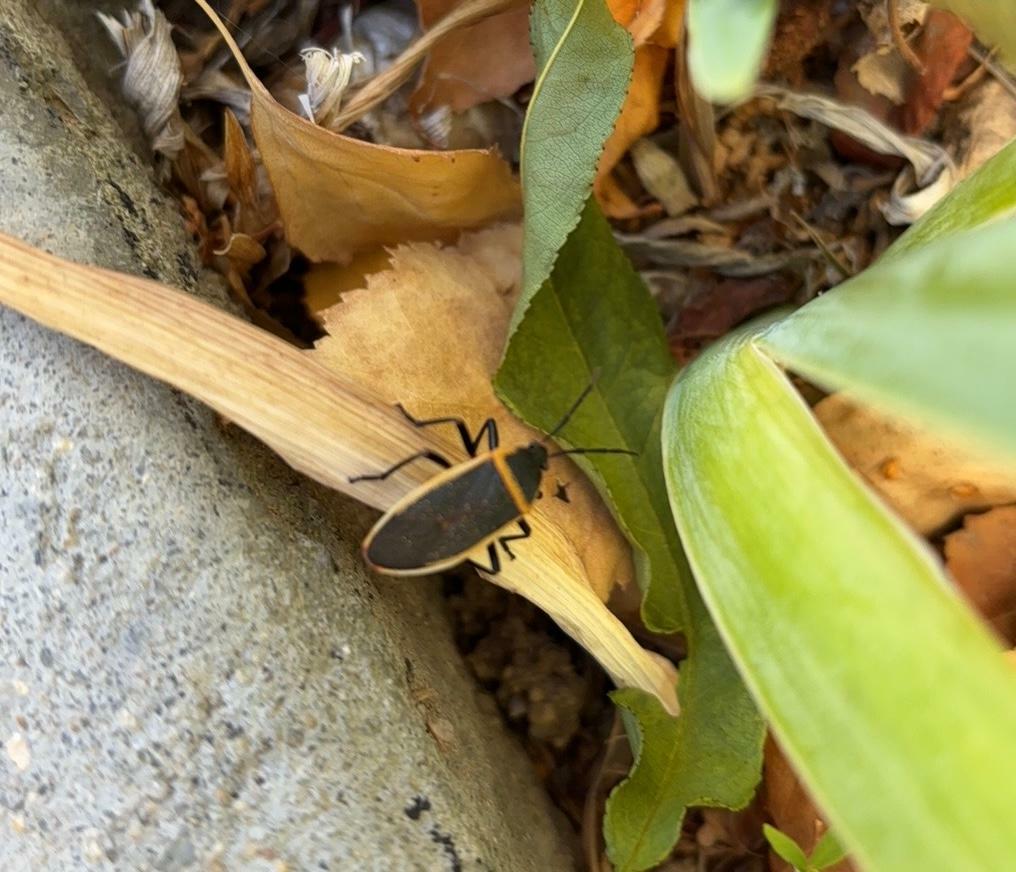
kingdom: Animalia
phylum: Arthropoda
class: Insecta
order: Hemiptera
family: Largidae
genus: Largus
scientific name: Largus californicus
